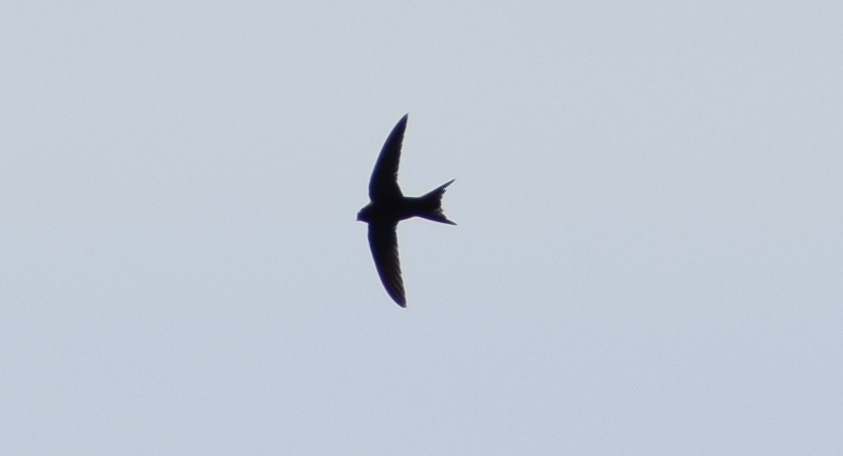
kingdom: Animalia
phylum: Chordata
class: Aves
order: Apodiformes
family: Apodidae
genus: Apus
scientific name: Apus apus
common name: Common swift
